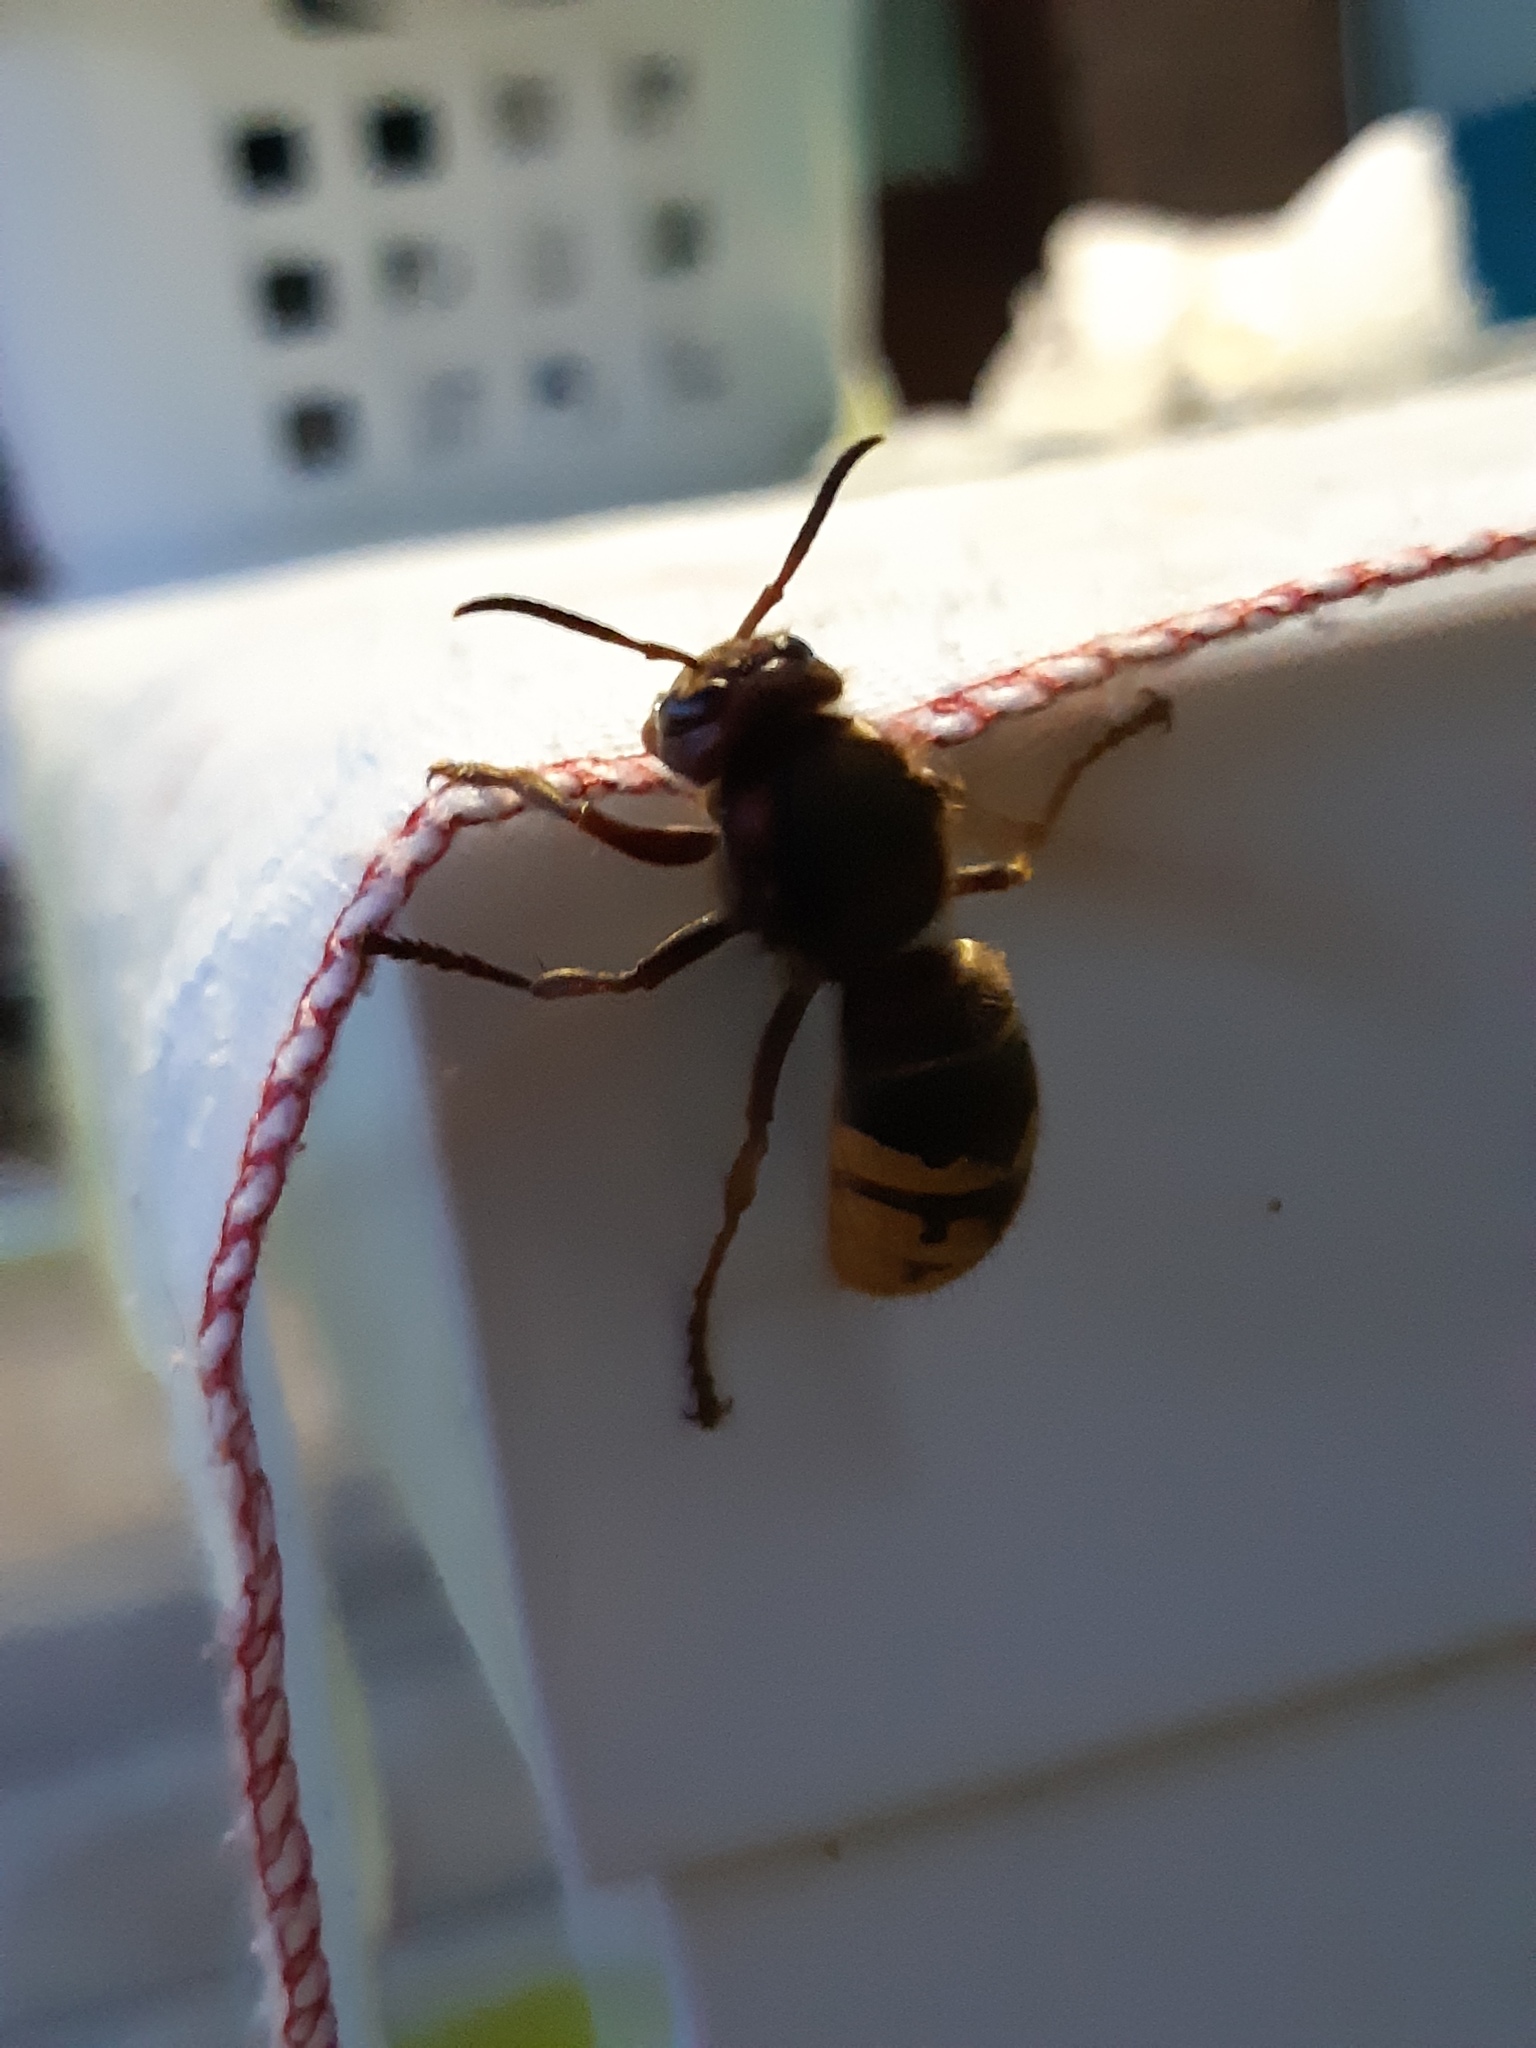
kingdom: Animalia
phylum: Arthropoda
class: Insecta
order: Hymenoptera
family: Vespidae
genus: Vespa
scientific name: Vespa crabro
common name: Hornet
